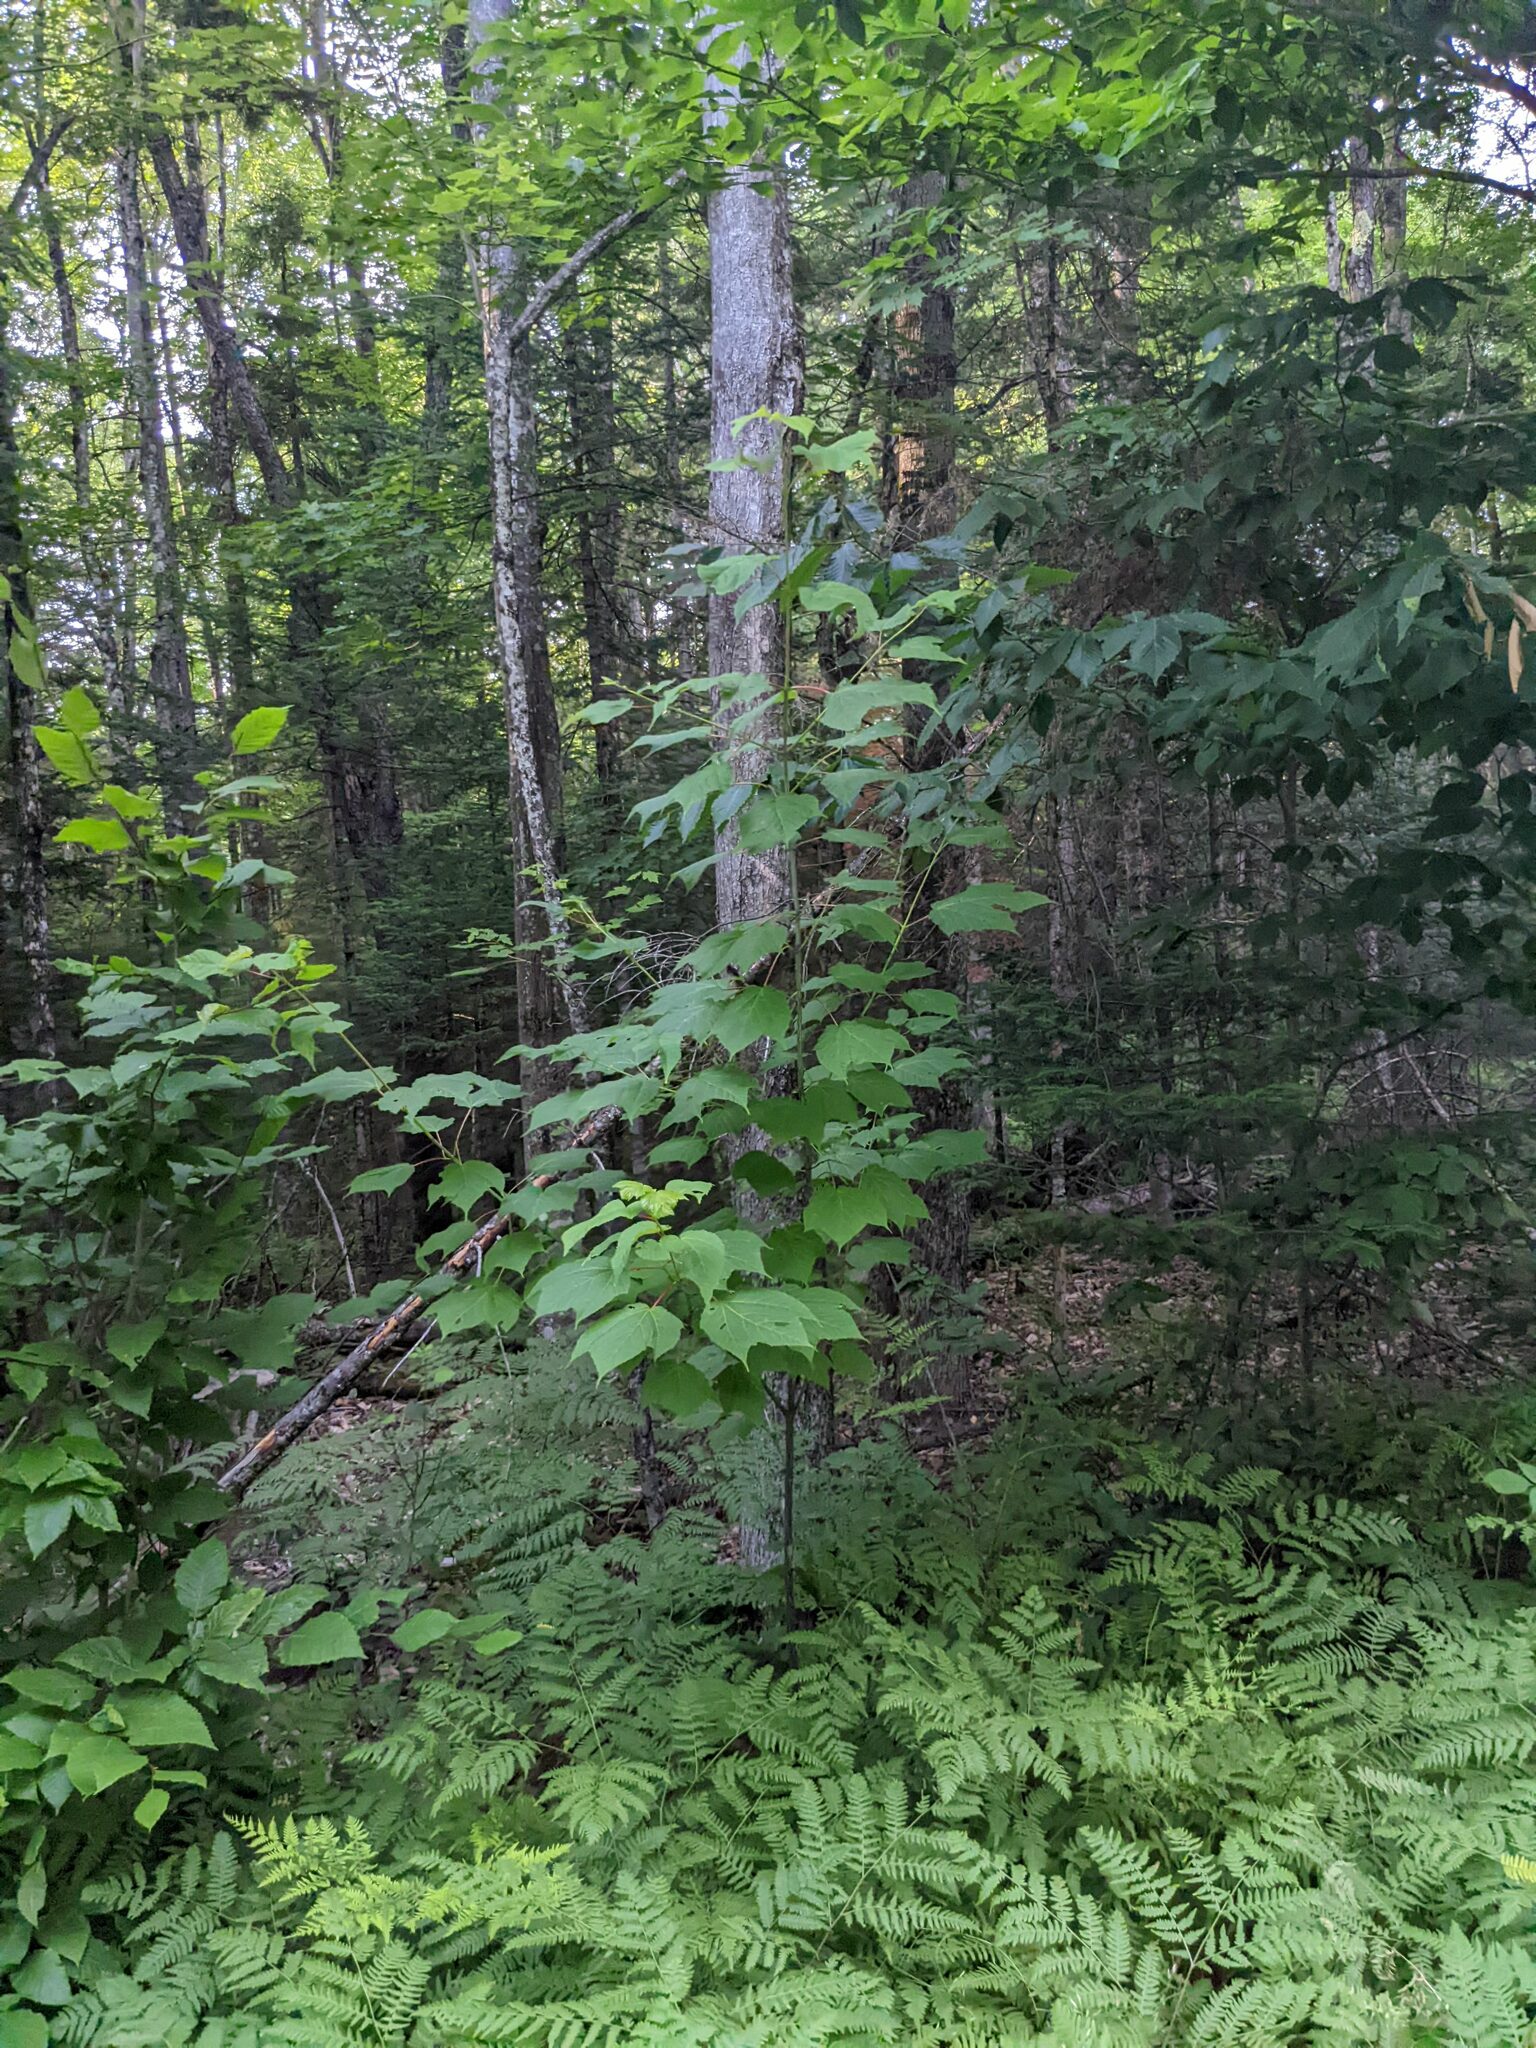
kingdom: Plantae
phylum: Tracheophyta
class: Magnoliopsida
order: Sapindales
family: Sapindaceae
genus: Acer
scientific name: Acer pensylvanicum
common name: Moosewood
